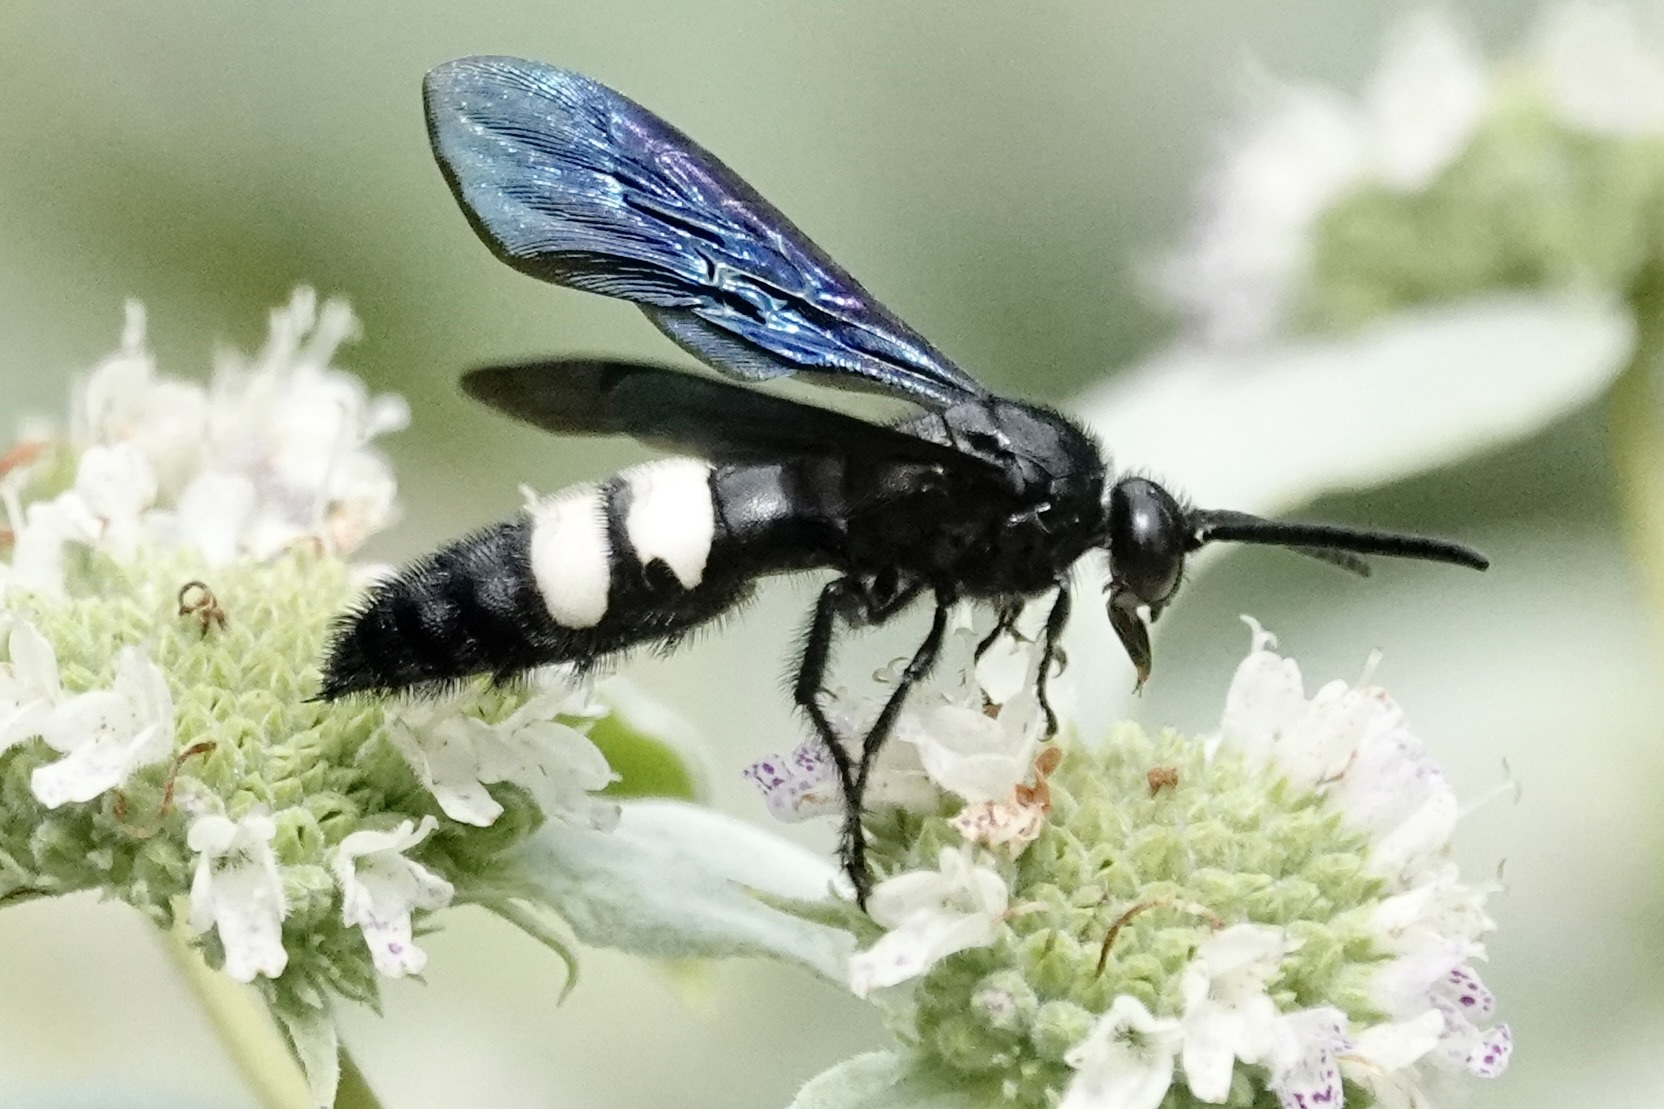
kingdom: Animalia
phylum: Arthropoda
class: Insecta
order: Hymenoptera
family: Scoliidae
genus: Scolia
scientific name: Scolia bicincta
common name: Double-banded scoliid wasp
